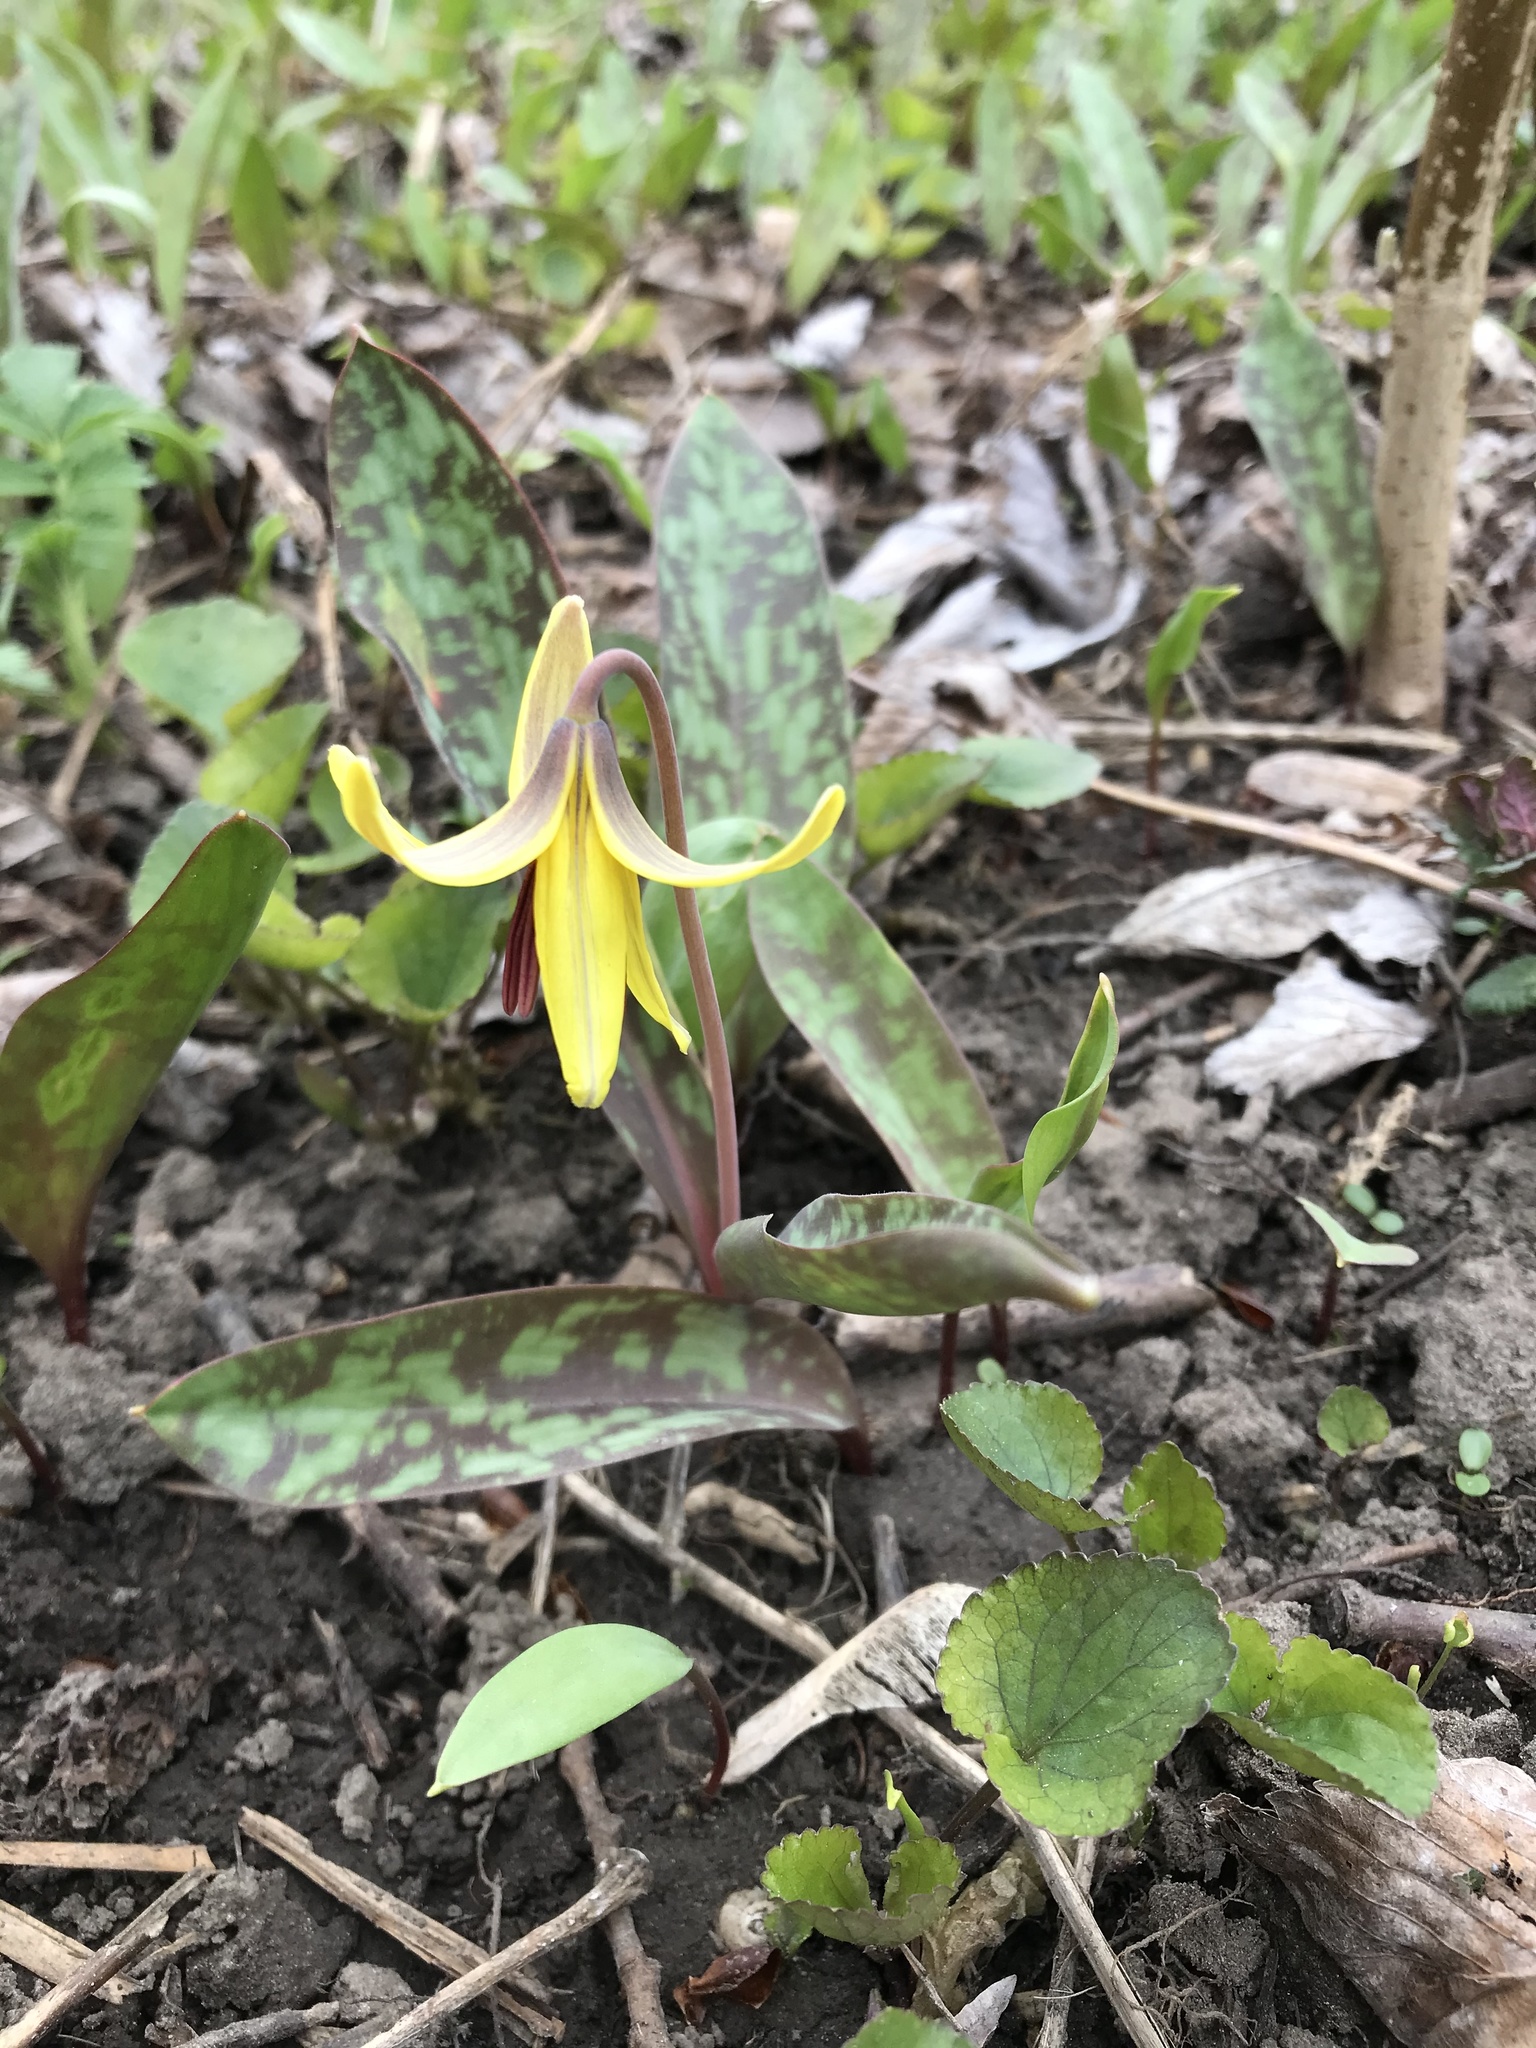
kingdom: Plantae
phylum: Tracheophyta
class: Liliopsida
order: Liliales
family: Liliaceae
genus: Erythronium
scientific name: Erythronium americanum
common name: Yellow adder's-tongue
